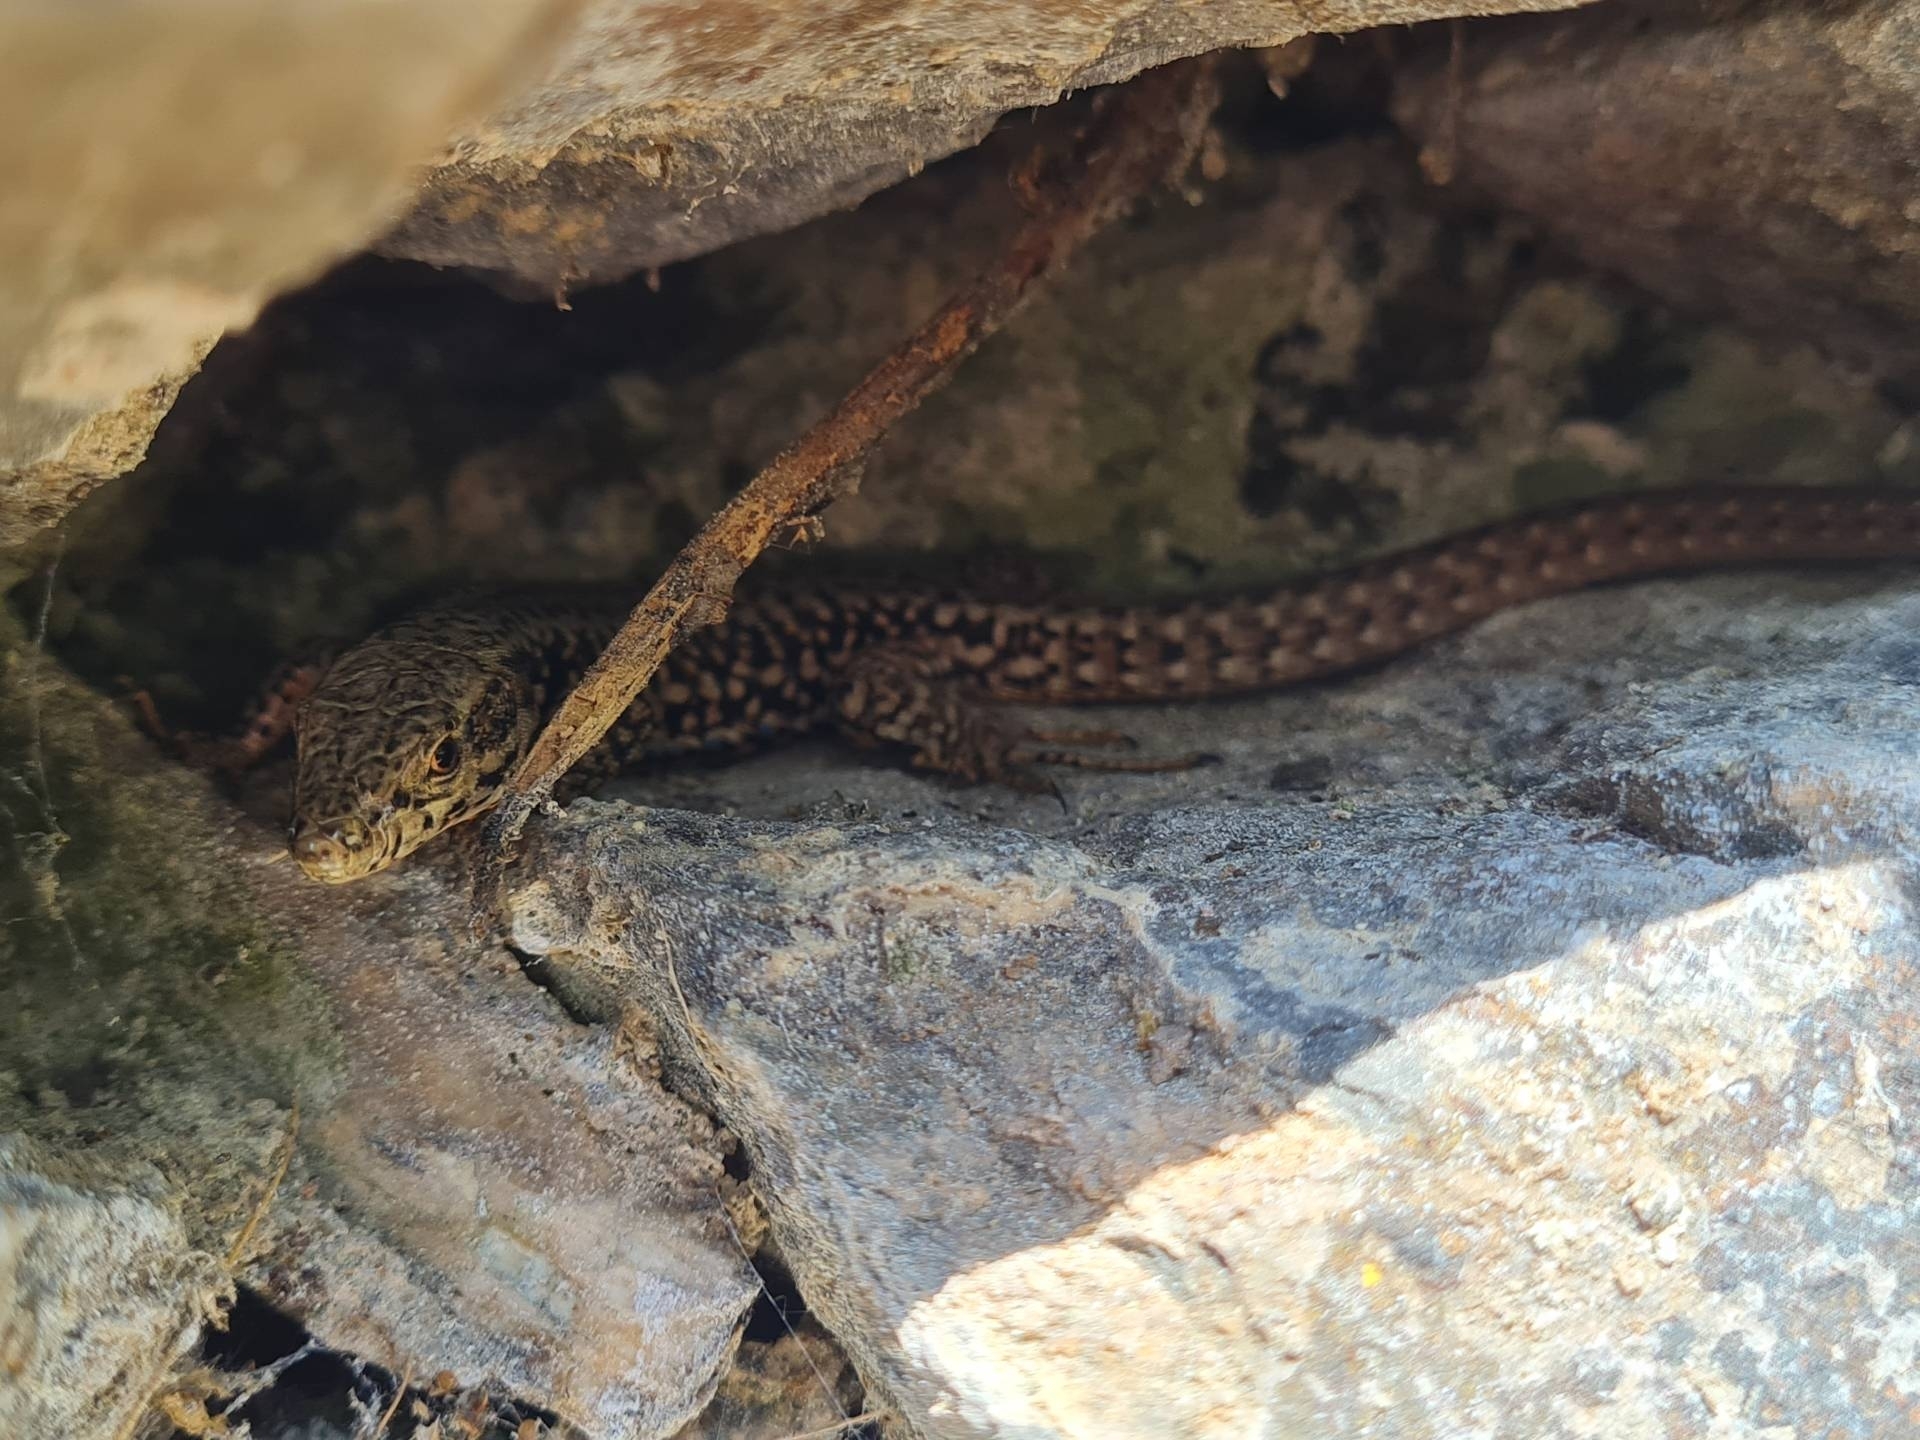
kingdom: Animalia
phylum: Chordata
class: Squamata
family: Lacertidae
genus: Podarcis
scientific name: Podarcis muralis
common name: Common wall lizard
